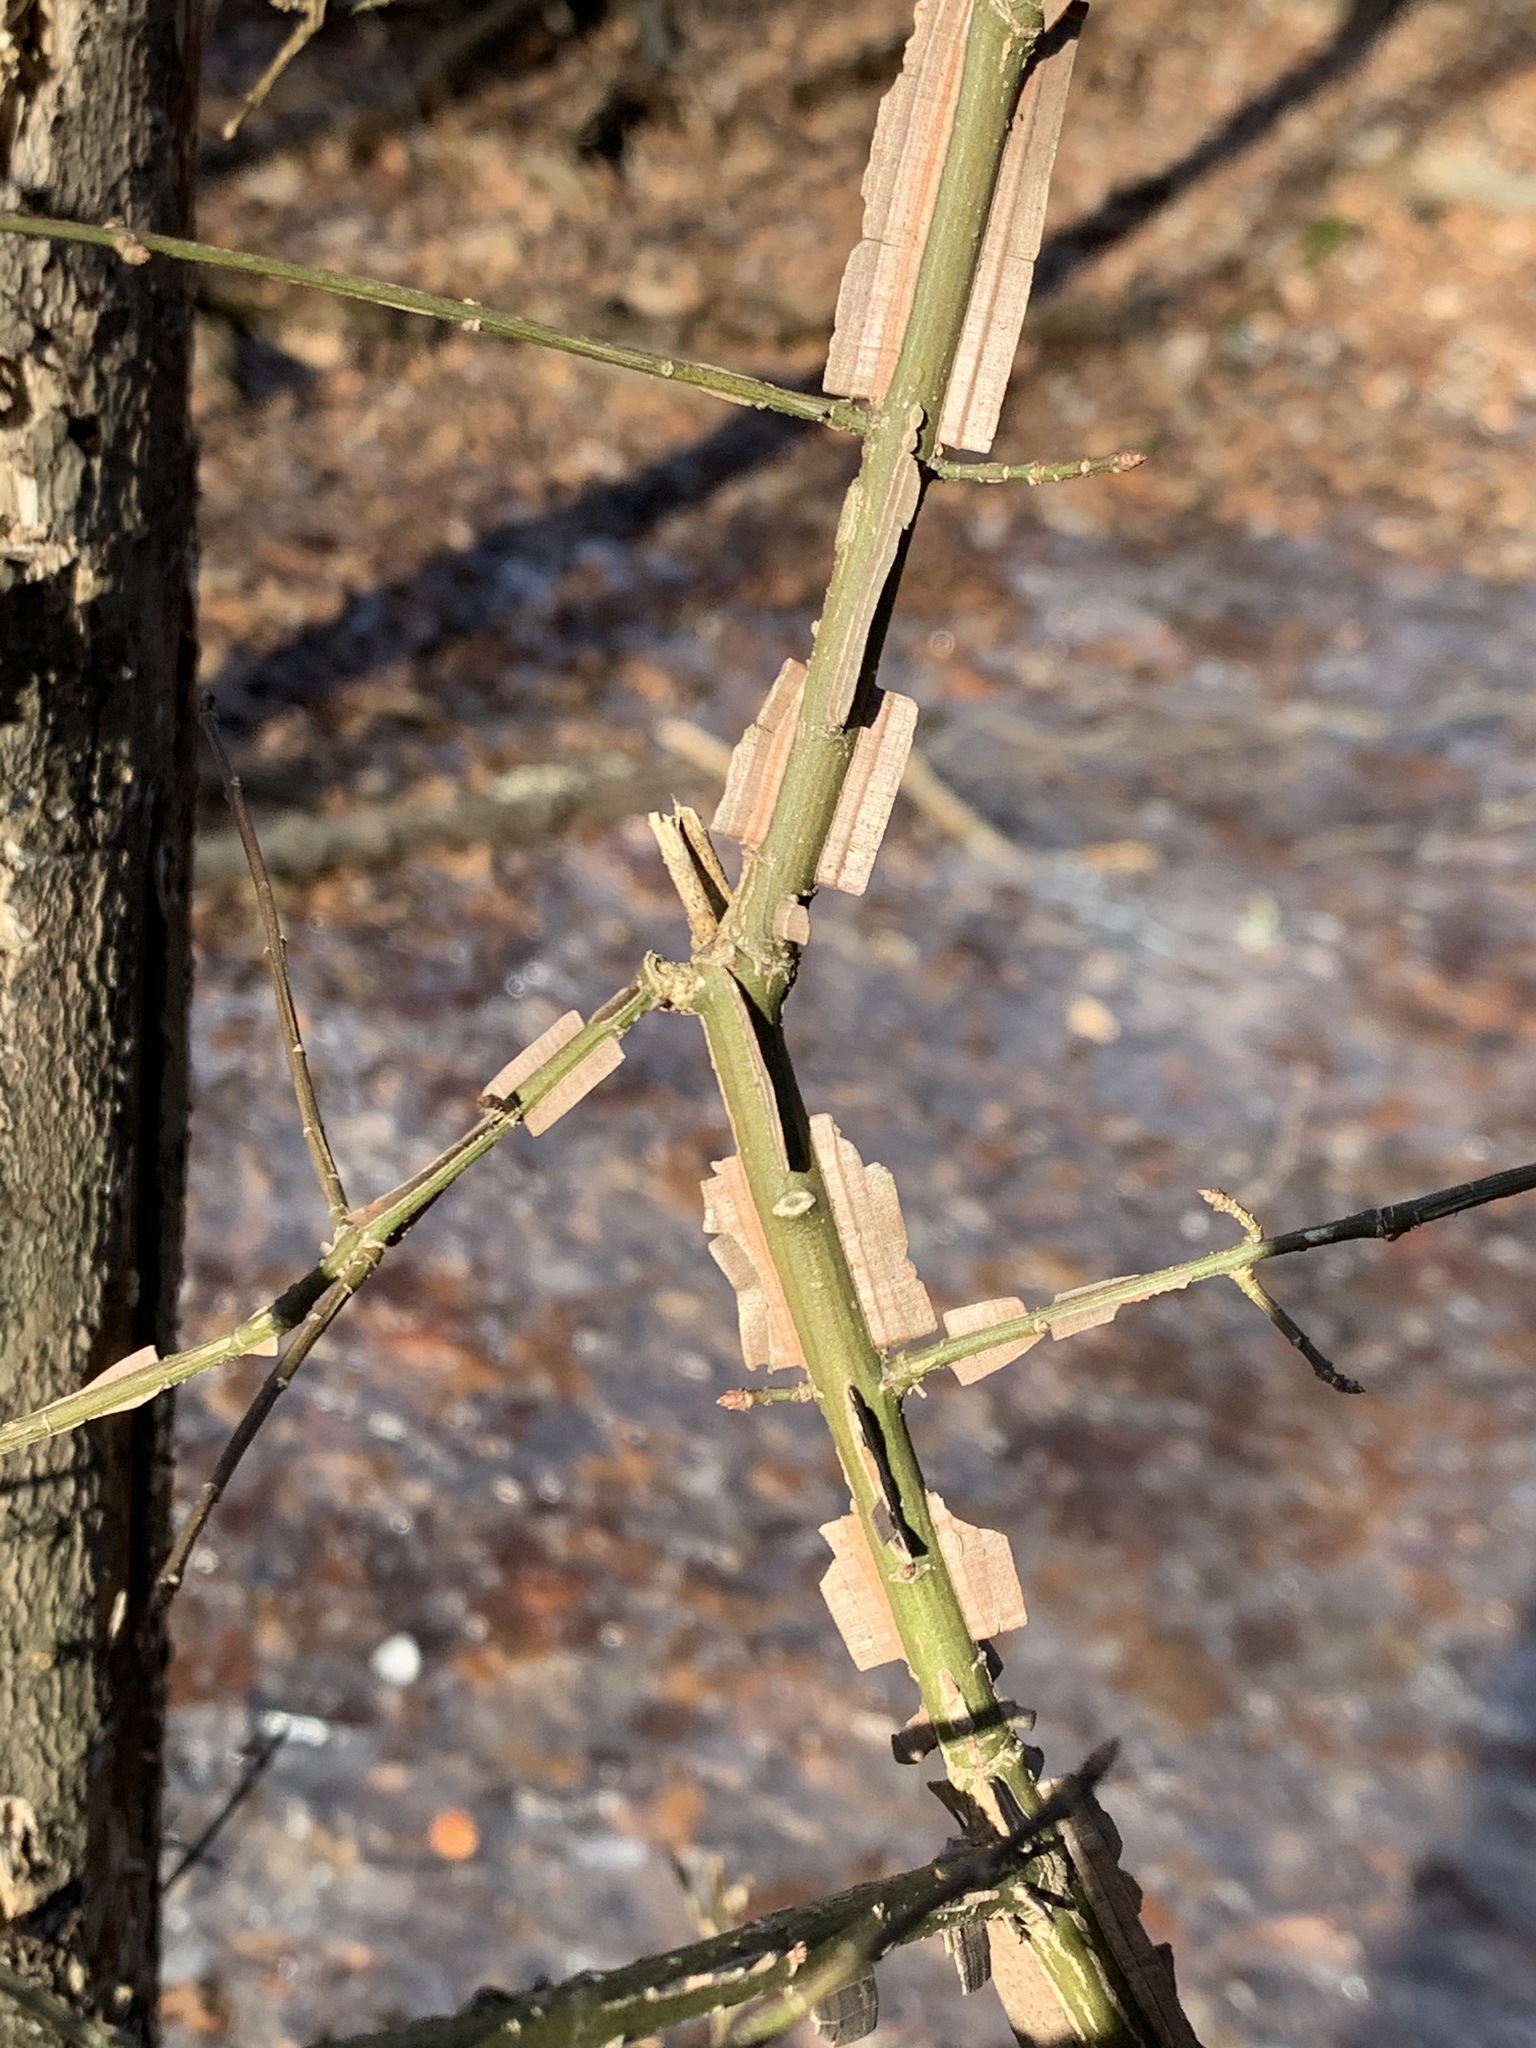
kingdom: Plantae
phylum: Tracheophyta
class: Magnoliopsida
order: Celastrales
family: Celastraceae
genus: Euonymus
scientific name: Euonymus alatus
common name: Winged euonymus
